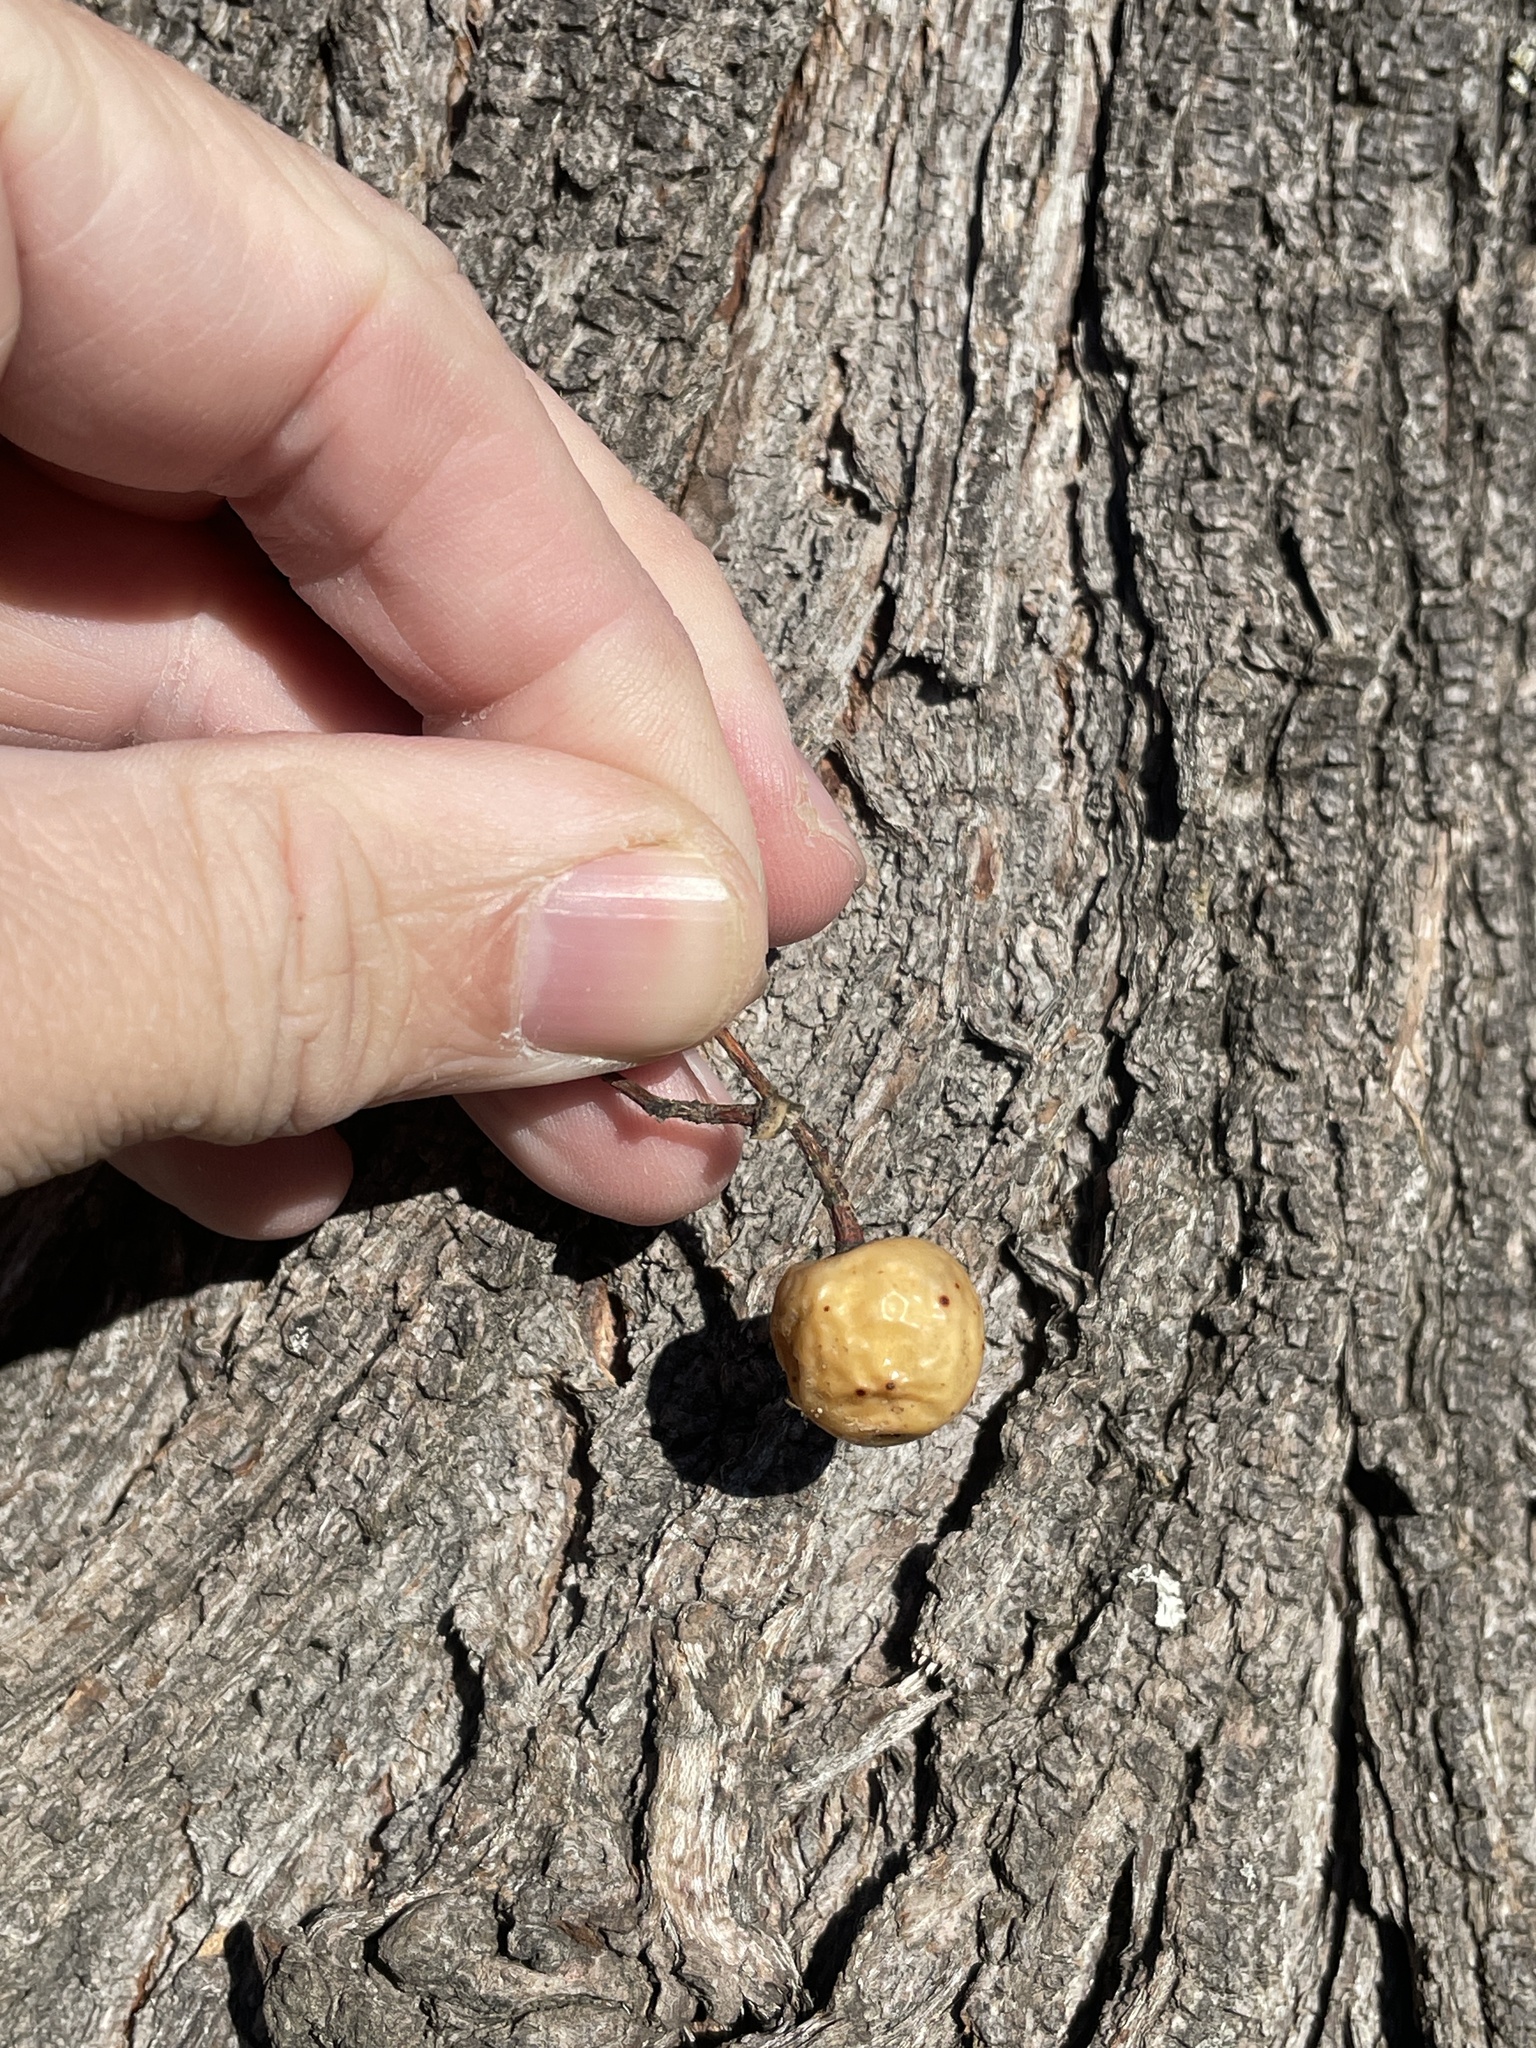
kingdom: Plantae
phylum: Tracheophyta
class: Magnoliopsida
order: Sapindales
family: Meliaceae
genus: Melia
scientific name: Melia azedarach
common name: Chinaberrytree
